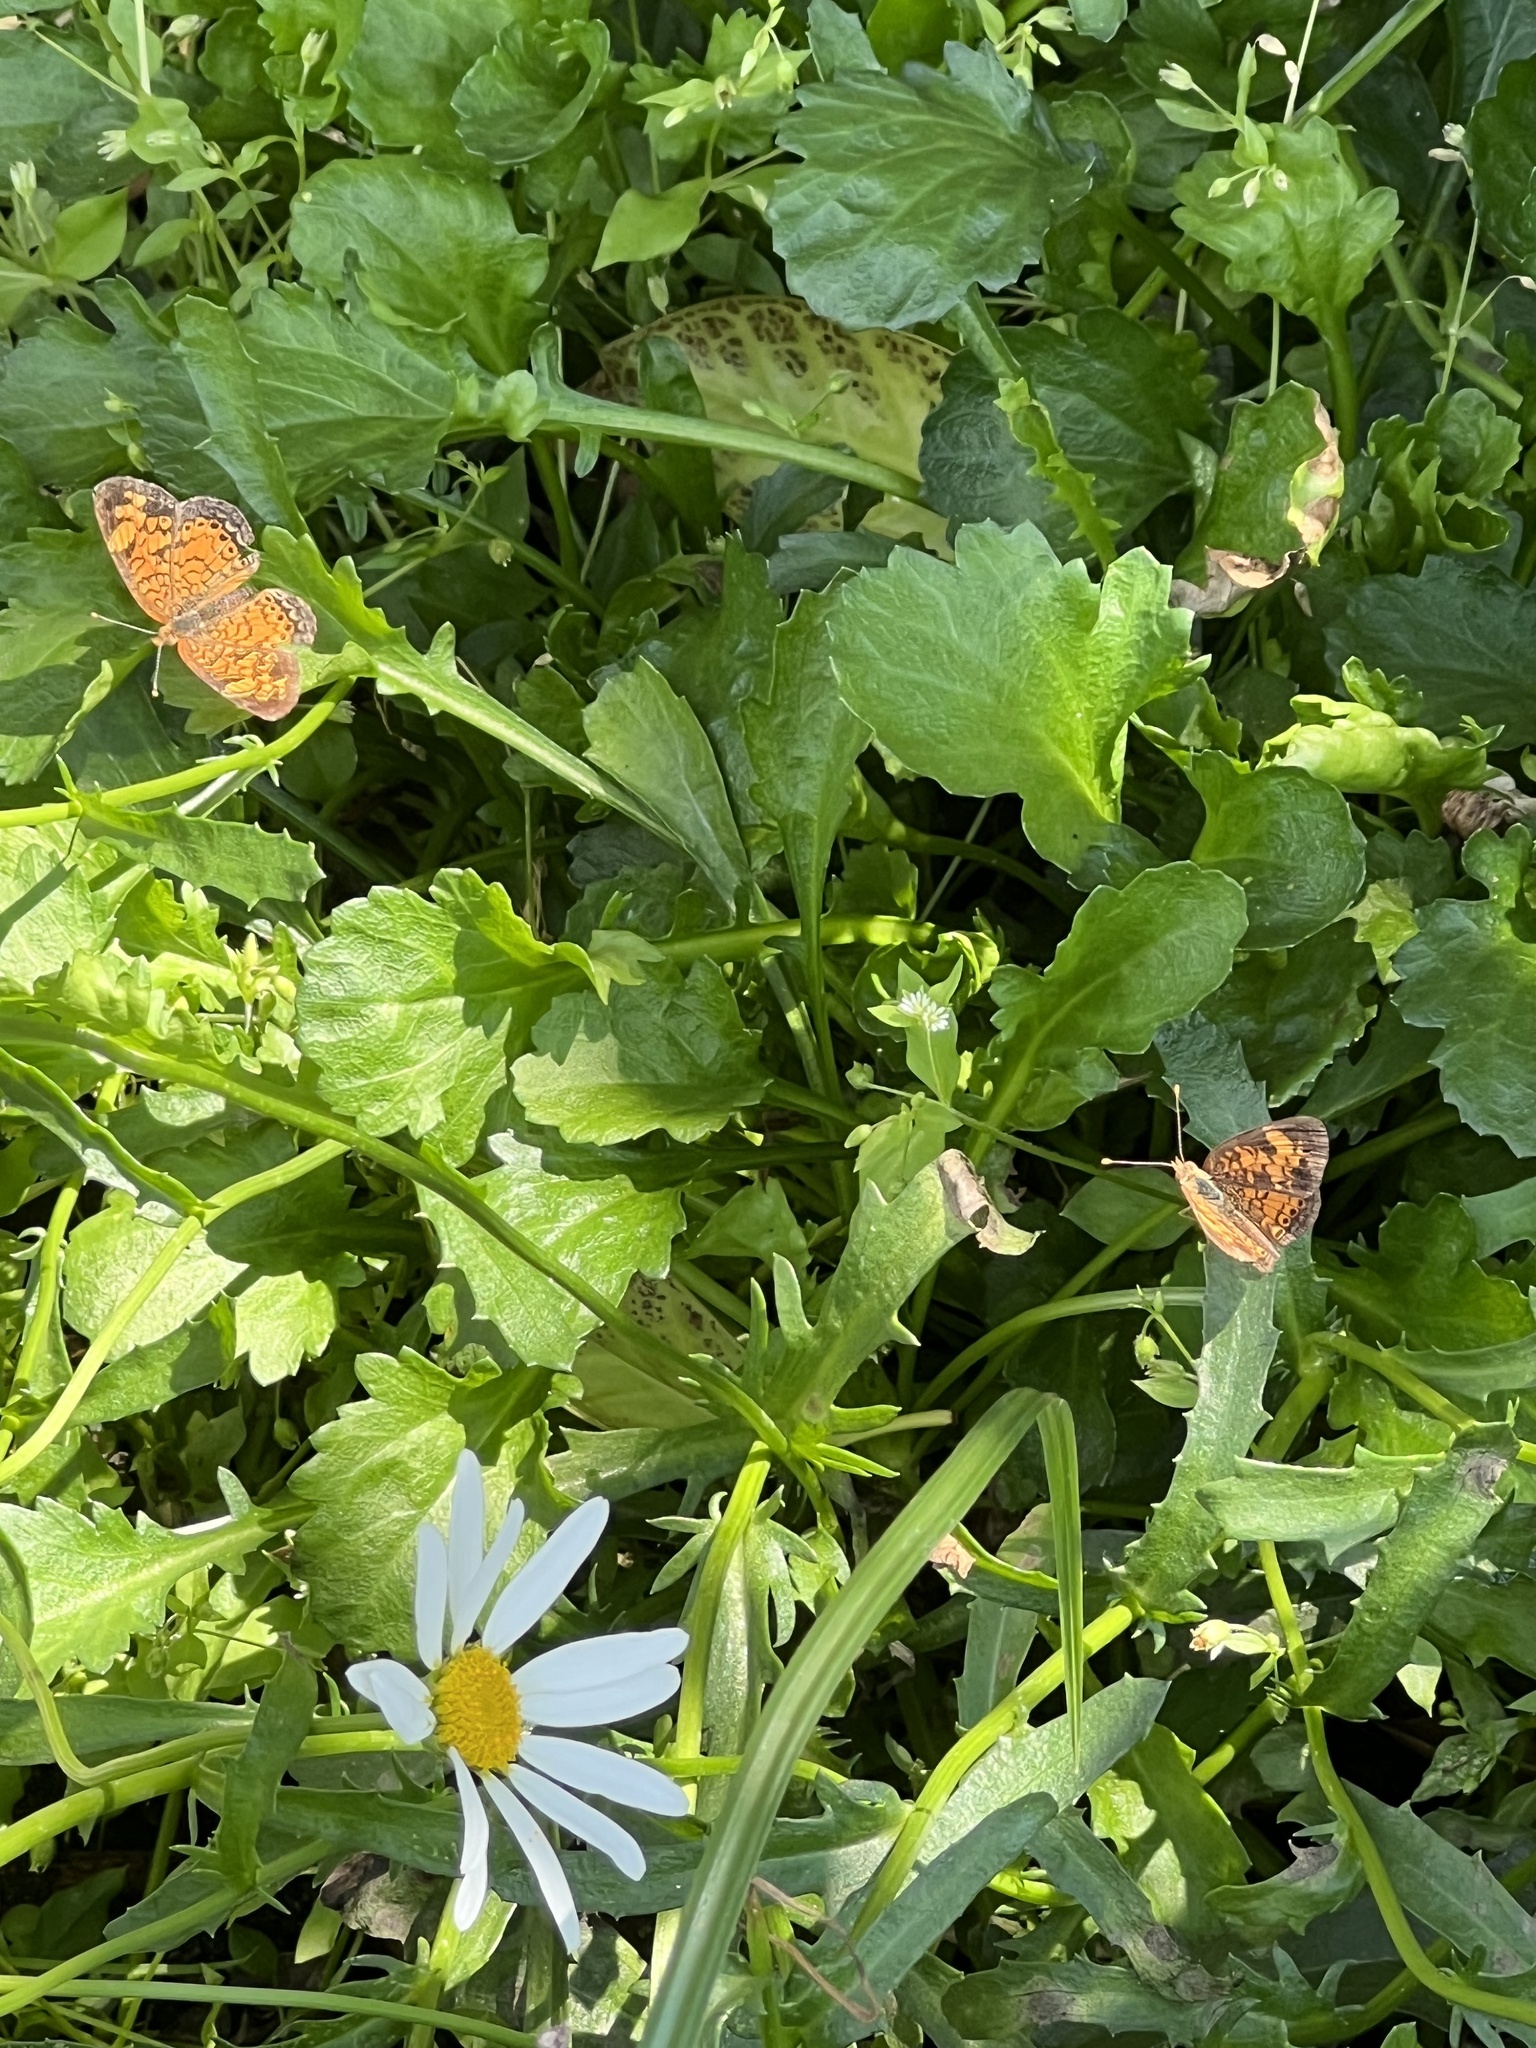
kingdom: Animalia
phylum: Arthropoda
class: Insecta
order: Lepidoptera
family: Nymphalidae
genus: Phyciodes
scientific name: Phyciodes tharos
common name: Pearl crescent
